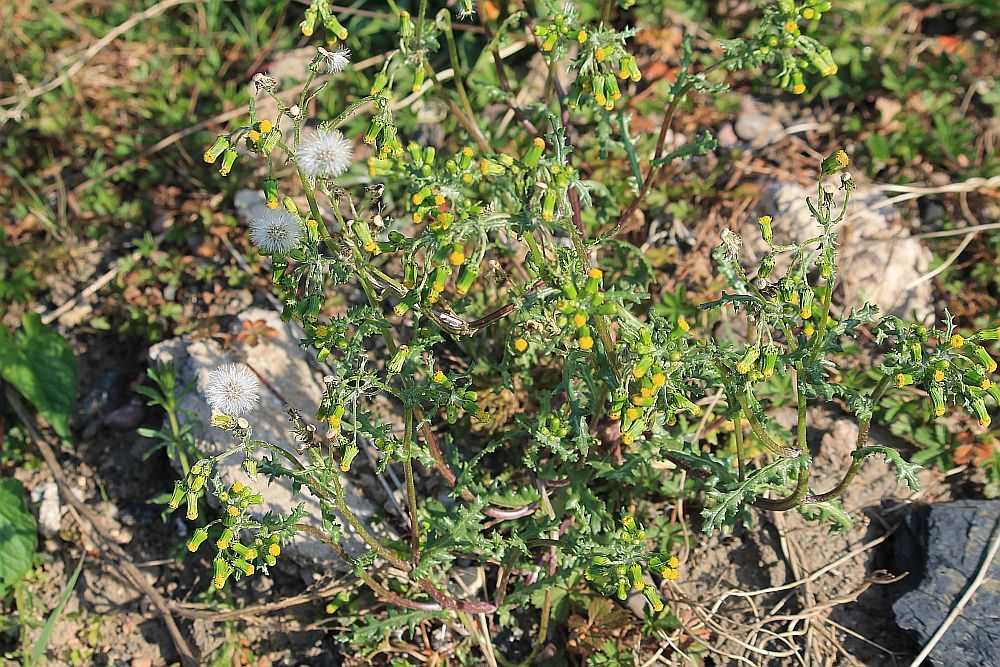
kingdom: Plantae
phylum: Tracheophyta
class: Magnoliopsida
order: Asterales
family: Asteraceae
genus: Senecio
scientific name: Senecio vulgaris
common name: Old-man-in-the-spring
